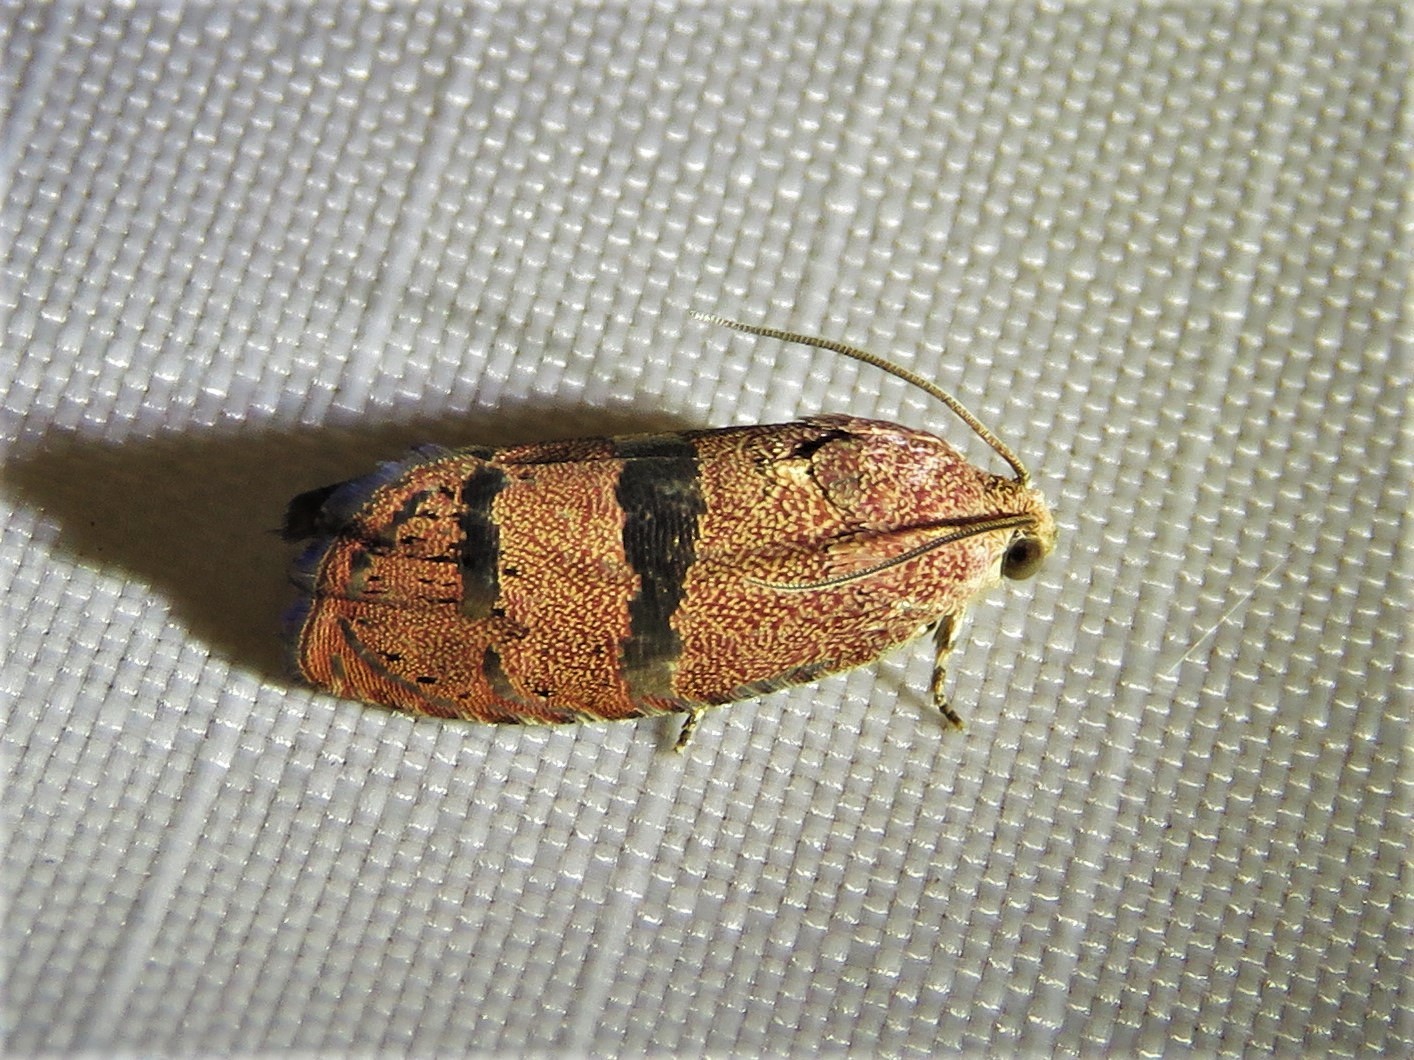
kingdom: Animalia
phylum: Arthropoda
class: Insecta
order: Lepidoptera
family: Tortricidae
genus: Cydia
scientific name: Cydia latiferreana
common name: Filbertworm moth
